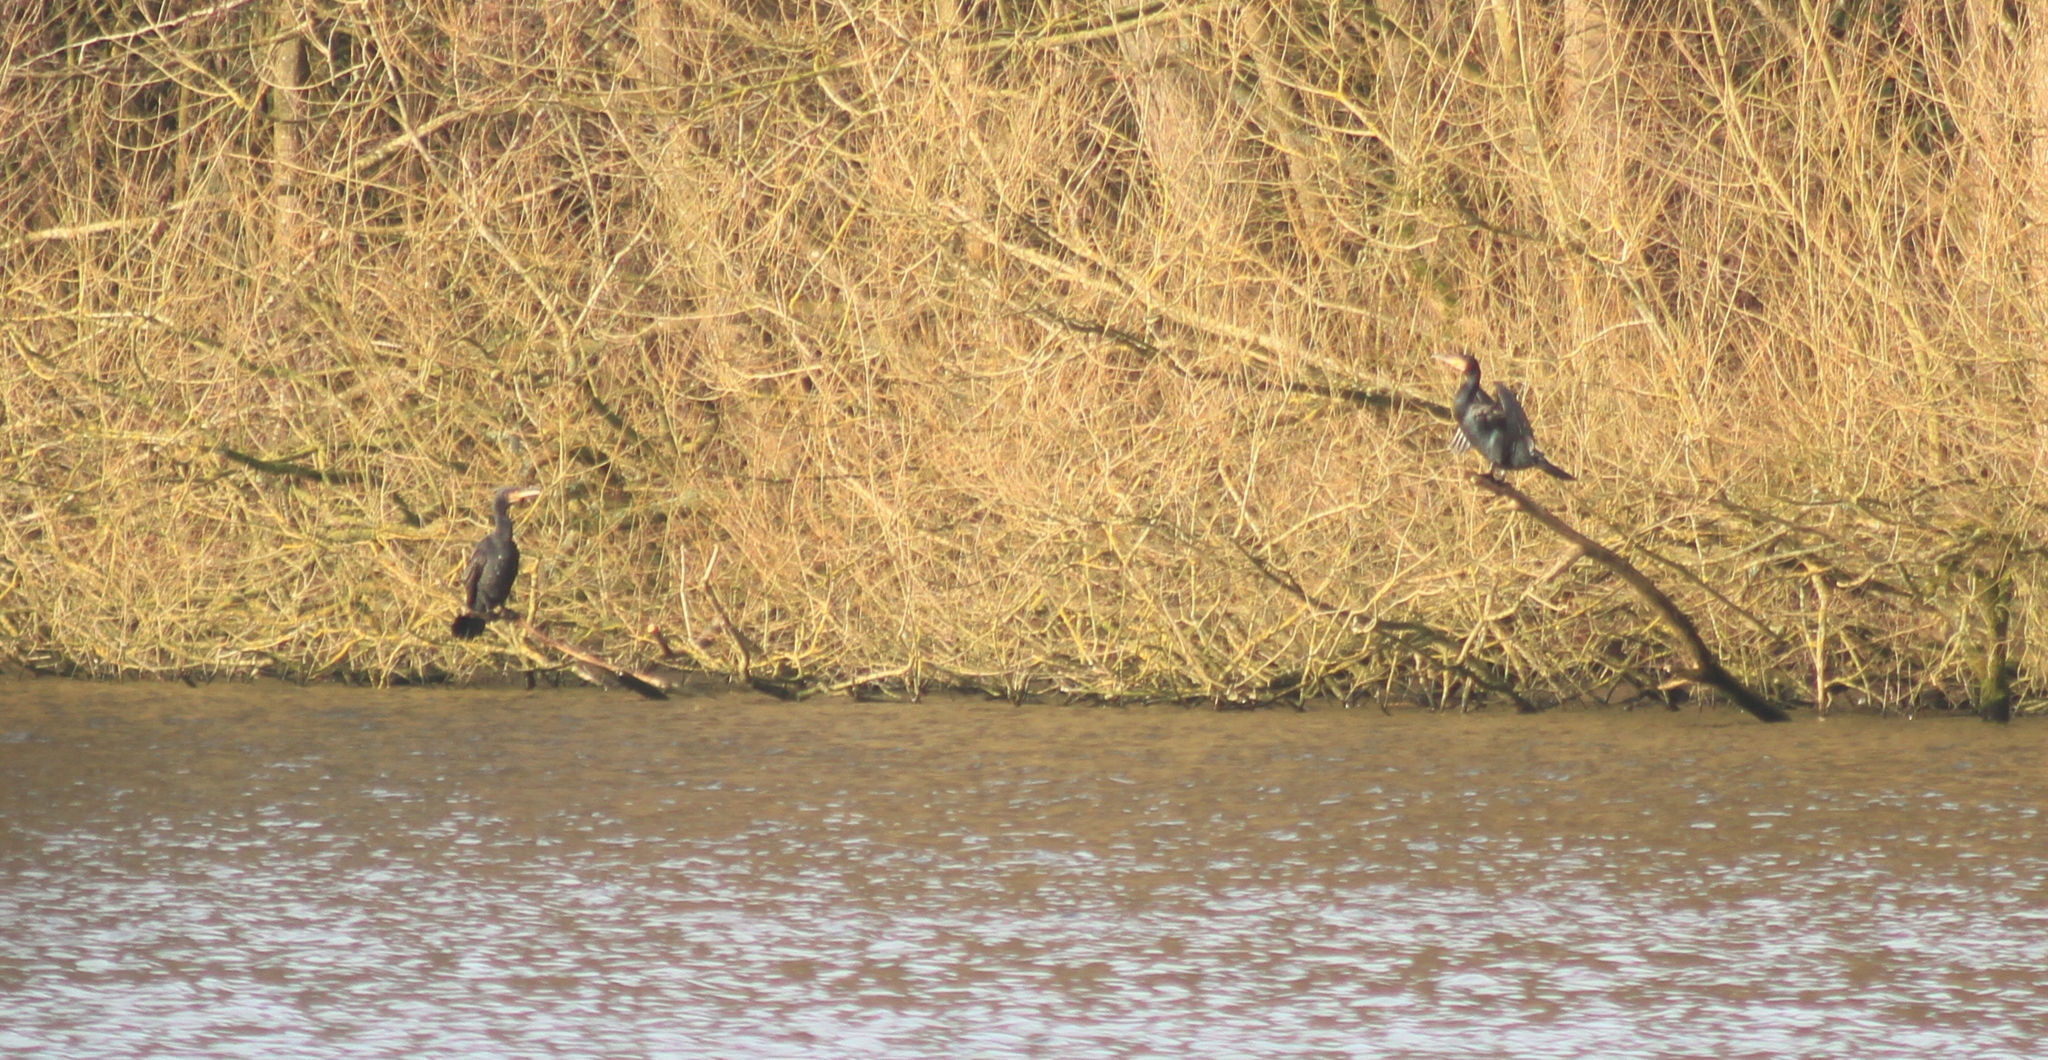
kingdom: Animalia
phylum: Chordata
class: Aves
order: Suliformes
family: Phalacrocoracidae
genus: Phalacrocorax
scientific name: Phalacrocorax carbo
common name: Great cormorant
